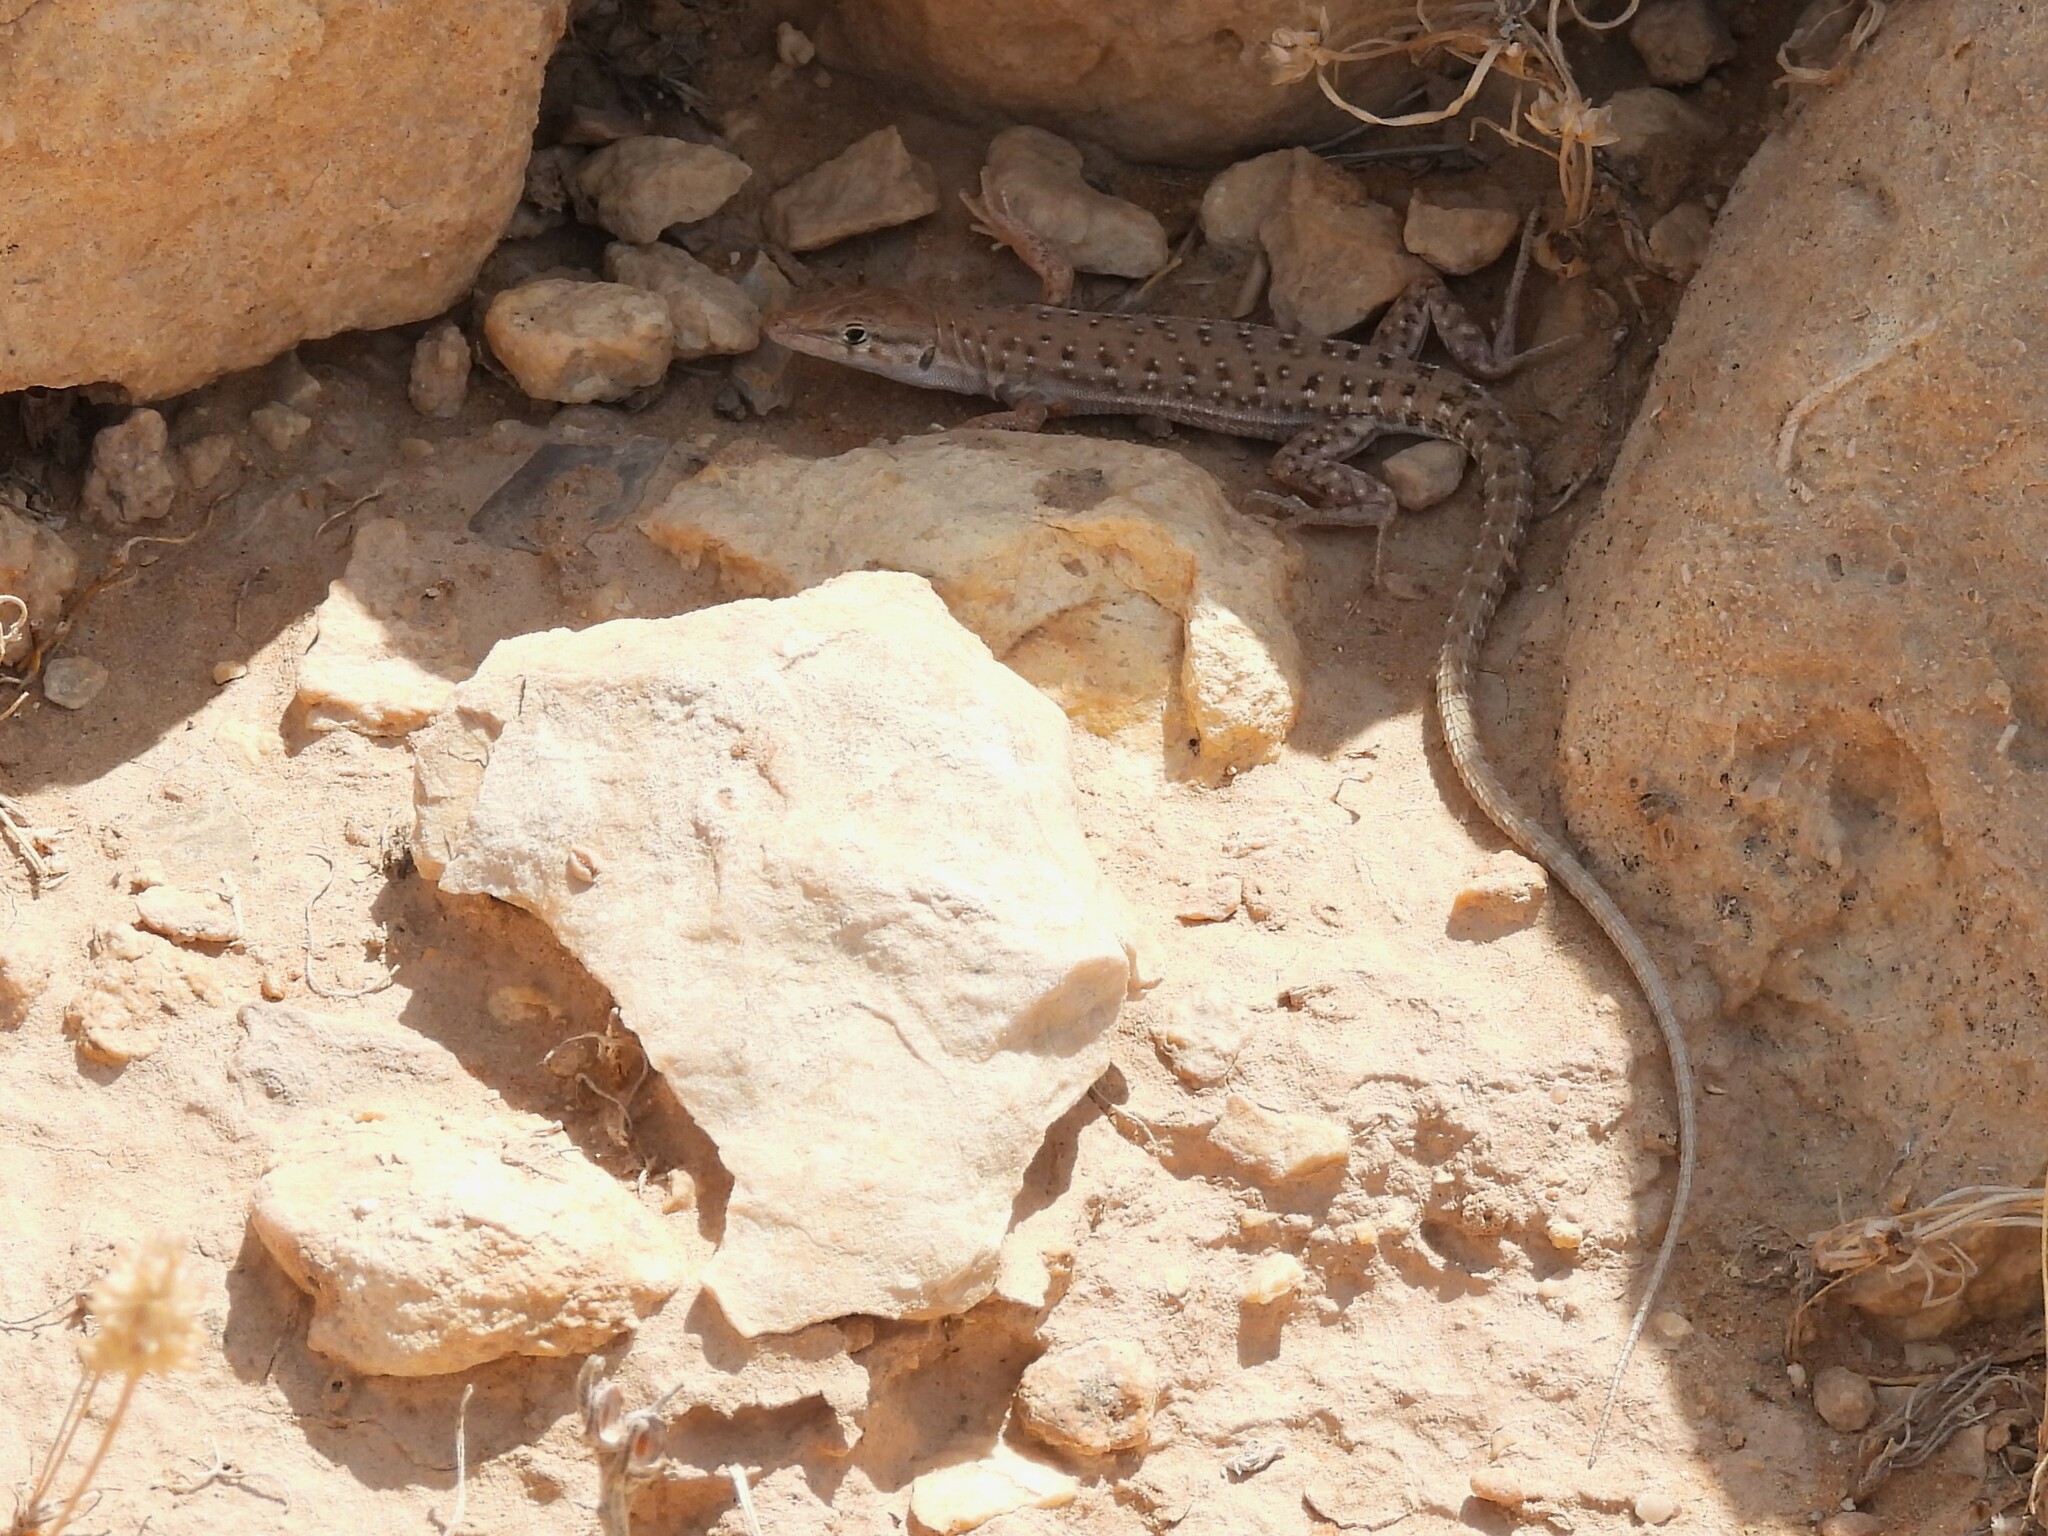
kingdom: Animalia
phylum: Chordata
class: Squamata
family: Lacertidae
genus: Mesalina
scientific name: Mesalina guttulata
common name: Desert lacerta
